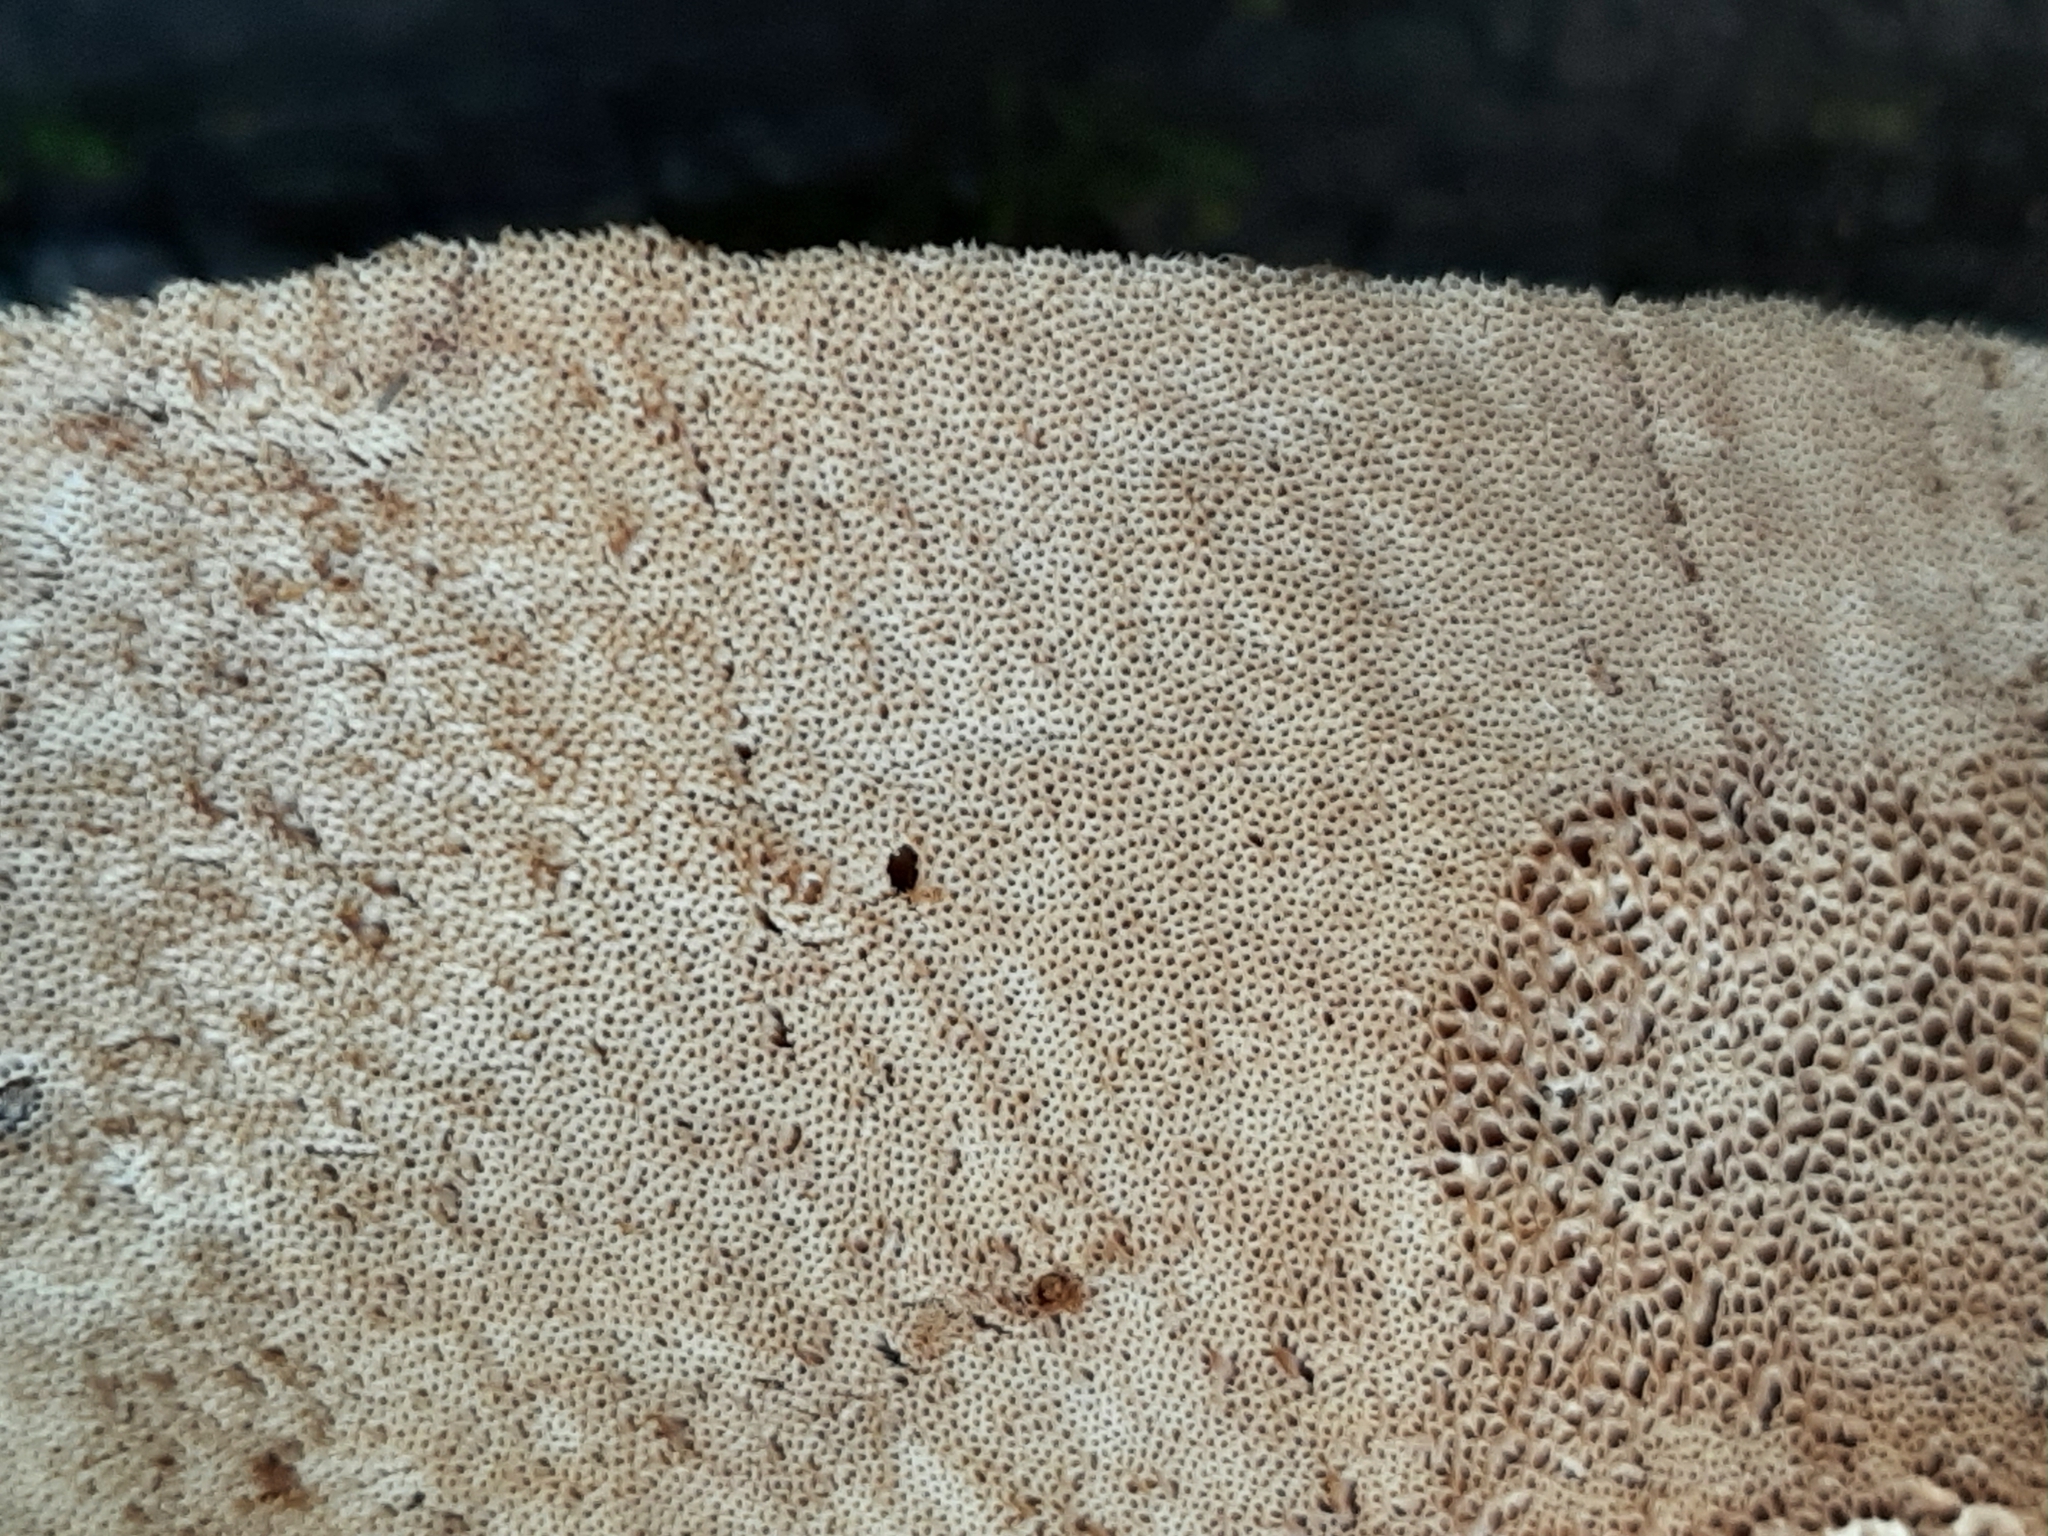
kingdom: Fungi
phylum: Basidiomycota
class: Agaricomycetes
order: Polyporales
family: Ischnodermataceae
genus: Ischnoderma
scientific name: Ischnoderma resinosum
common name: Resinous polypore
